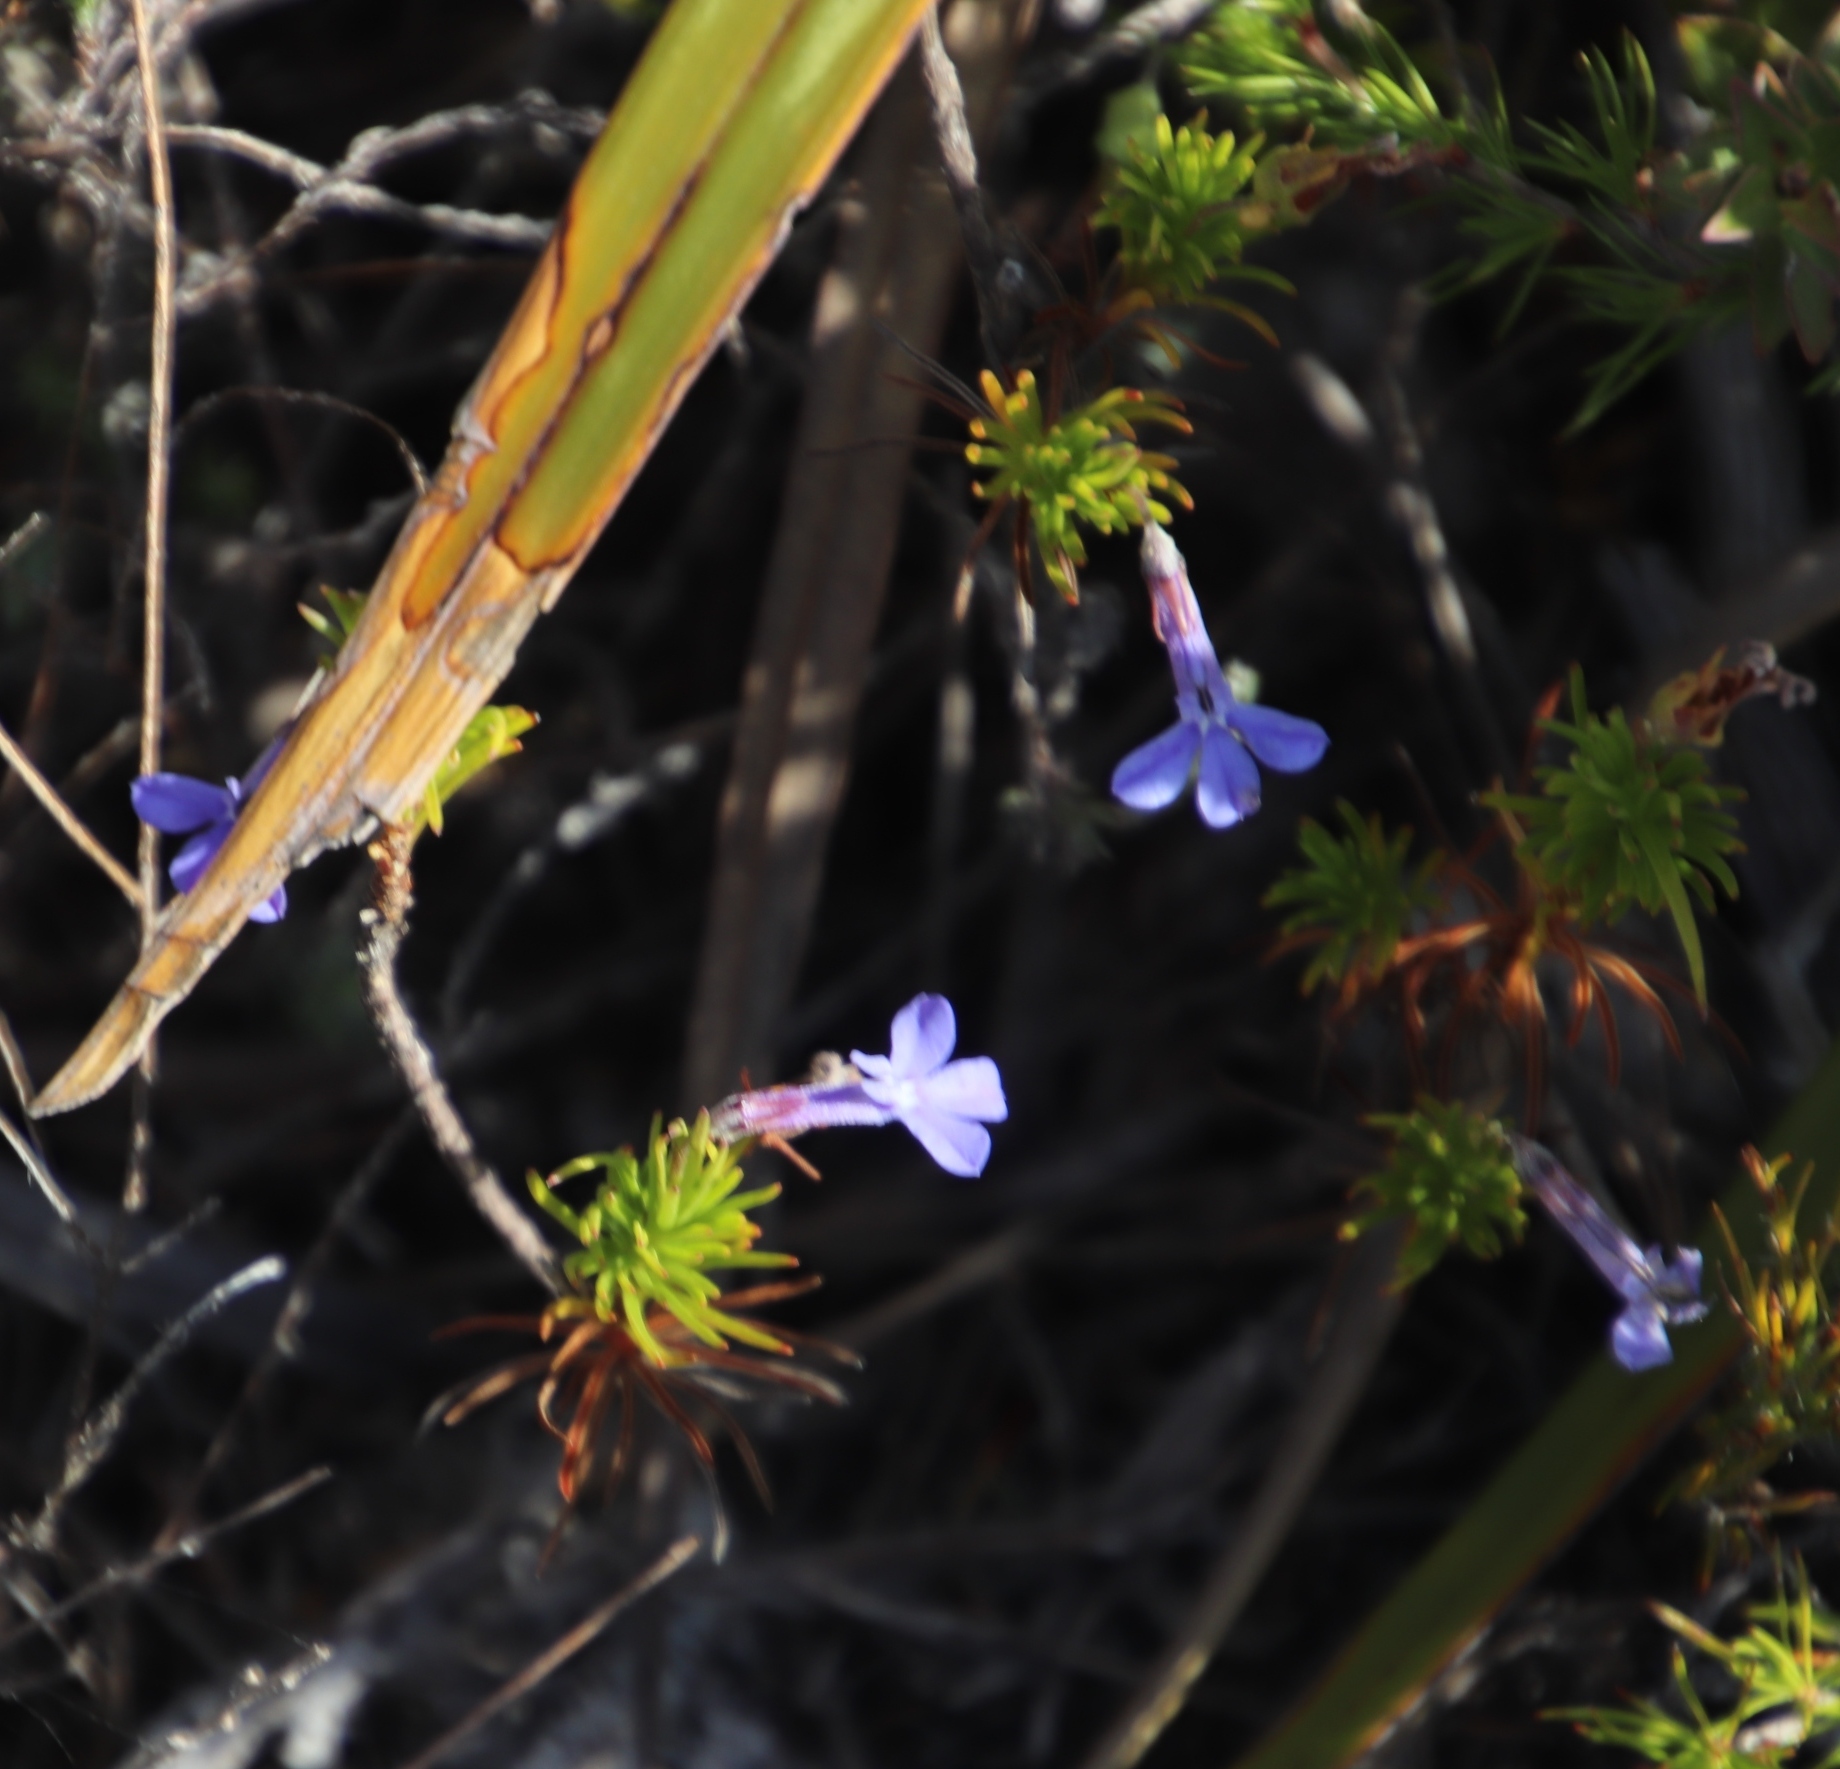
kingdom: Plantae
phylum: Tracheophyta
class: Magnoliopsida
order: Asterales
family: Campanulaceae
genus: Lobelia
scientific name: Lobelia pinifolia
